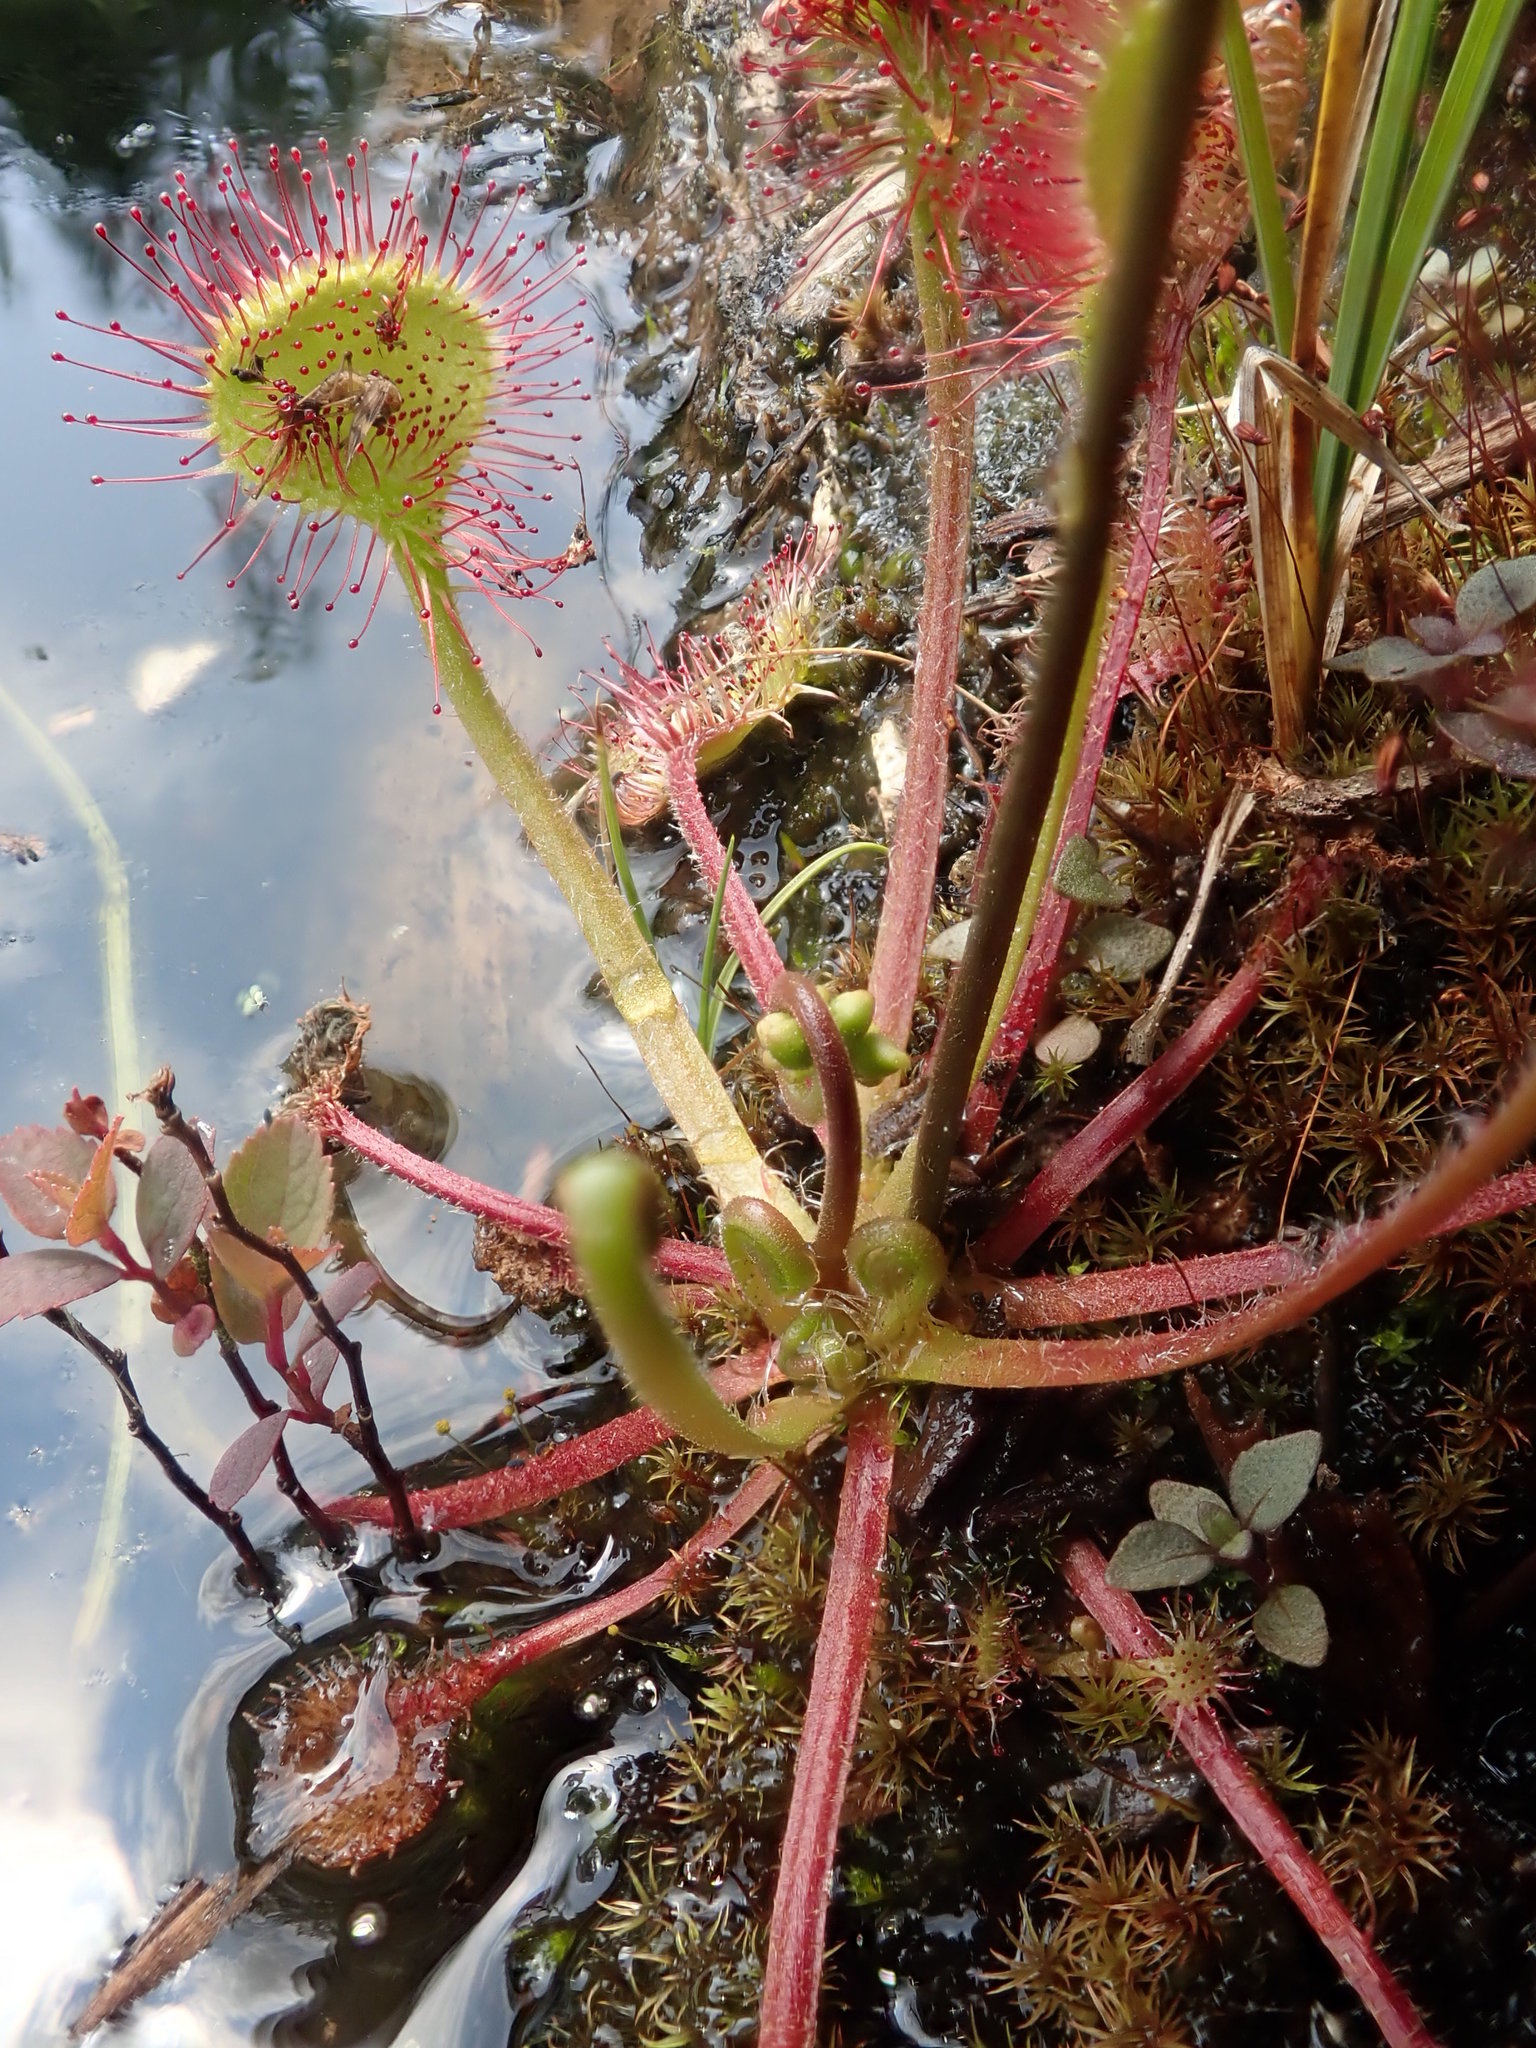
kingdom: Plantae
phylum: Tracheophyta
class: Magnoliopsida
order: Caryophyllales
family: Droseraceae
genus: Drosera
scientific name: Drosera rotundifolia
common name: Round-leaved sundew
